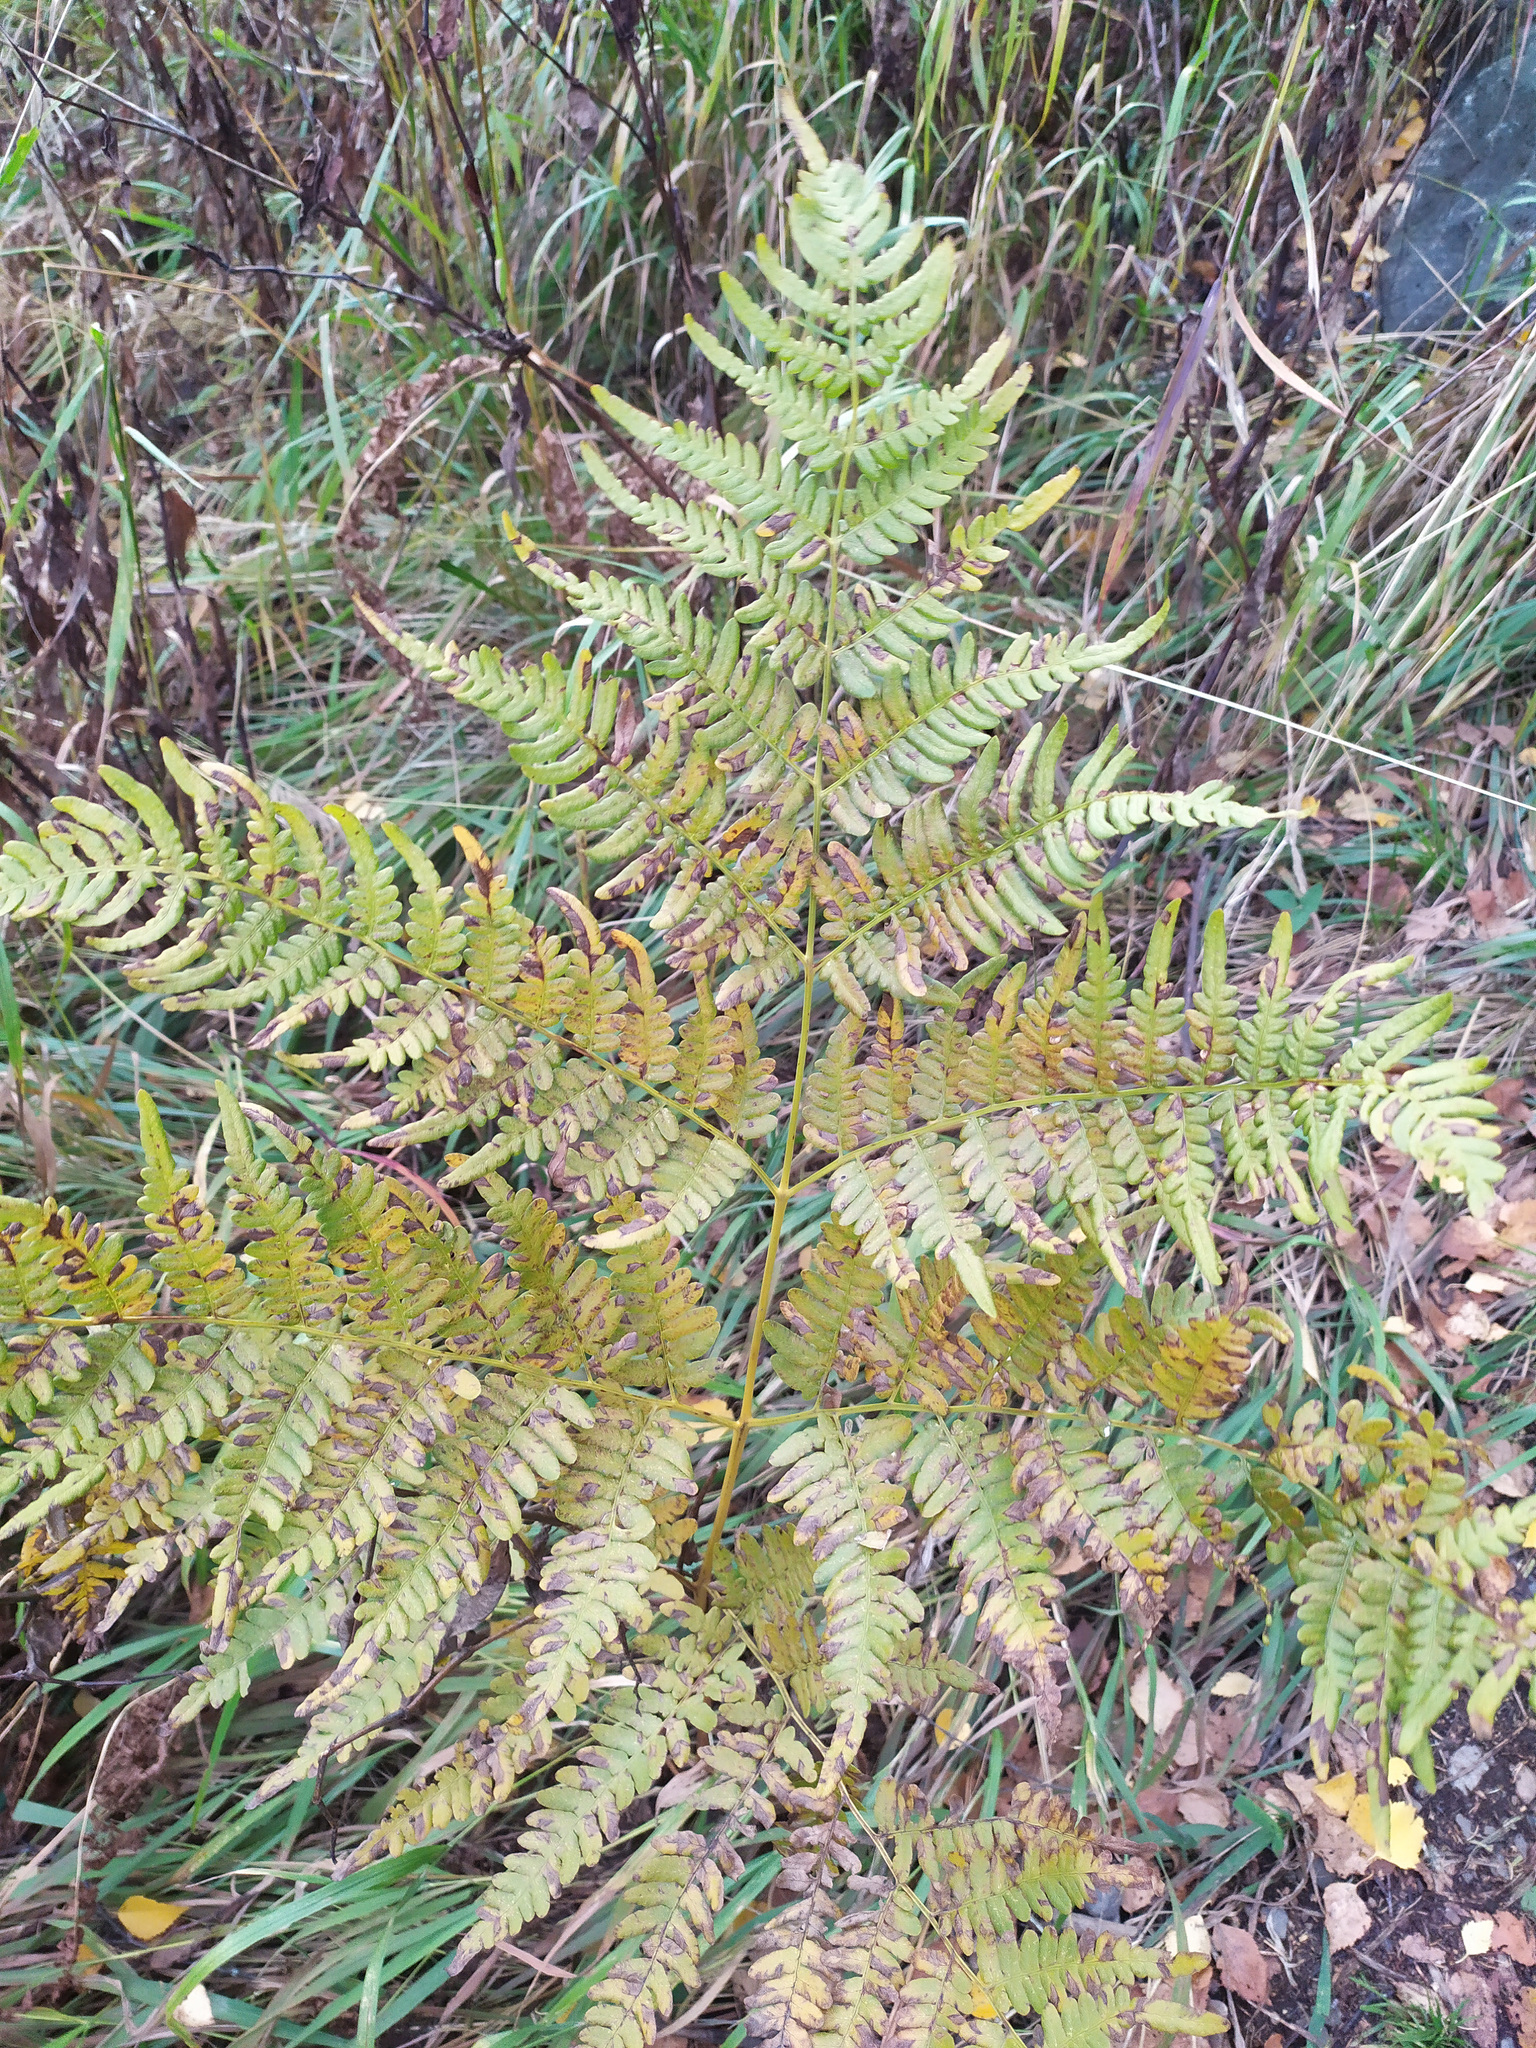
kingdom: Plantae
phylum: Tracheophyta
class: Polypodiopsida
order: Polypodiales
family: Dennstaedtiaceae
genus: Pteridium
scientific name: Pteridium aquilinum
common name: Bracken
